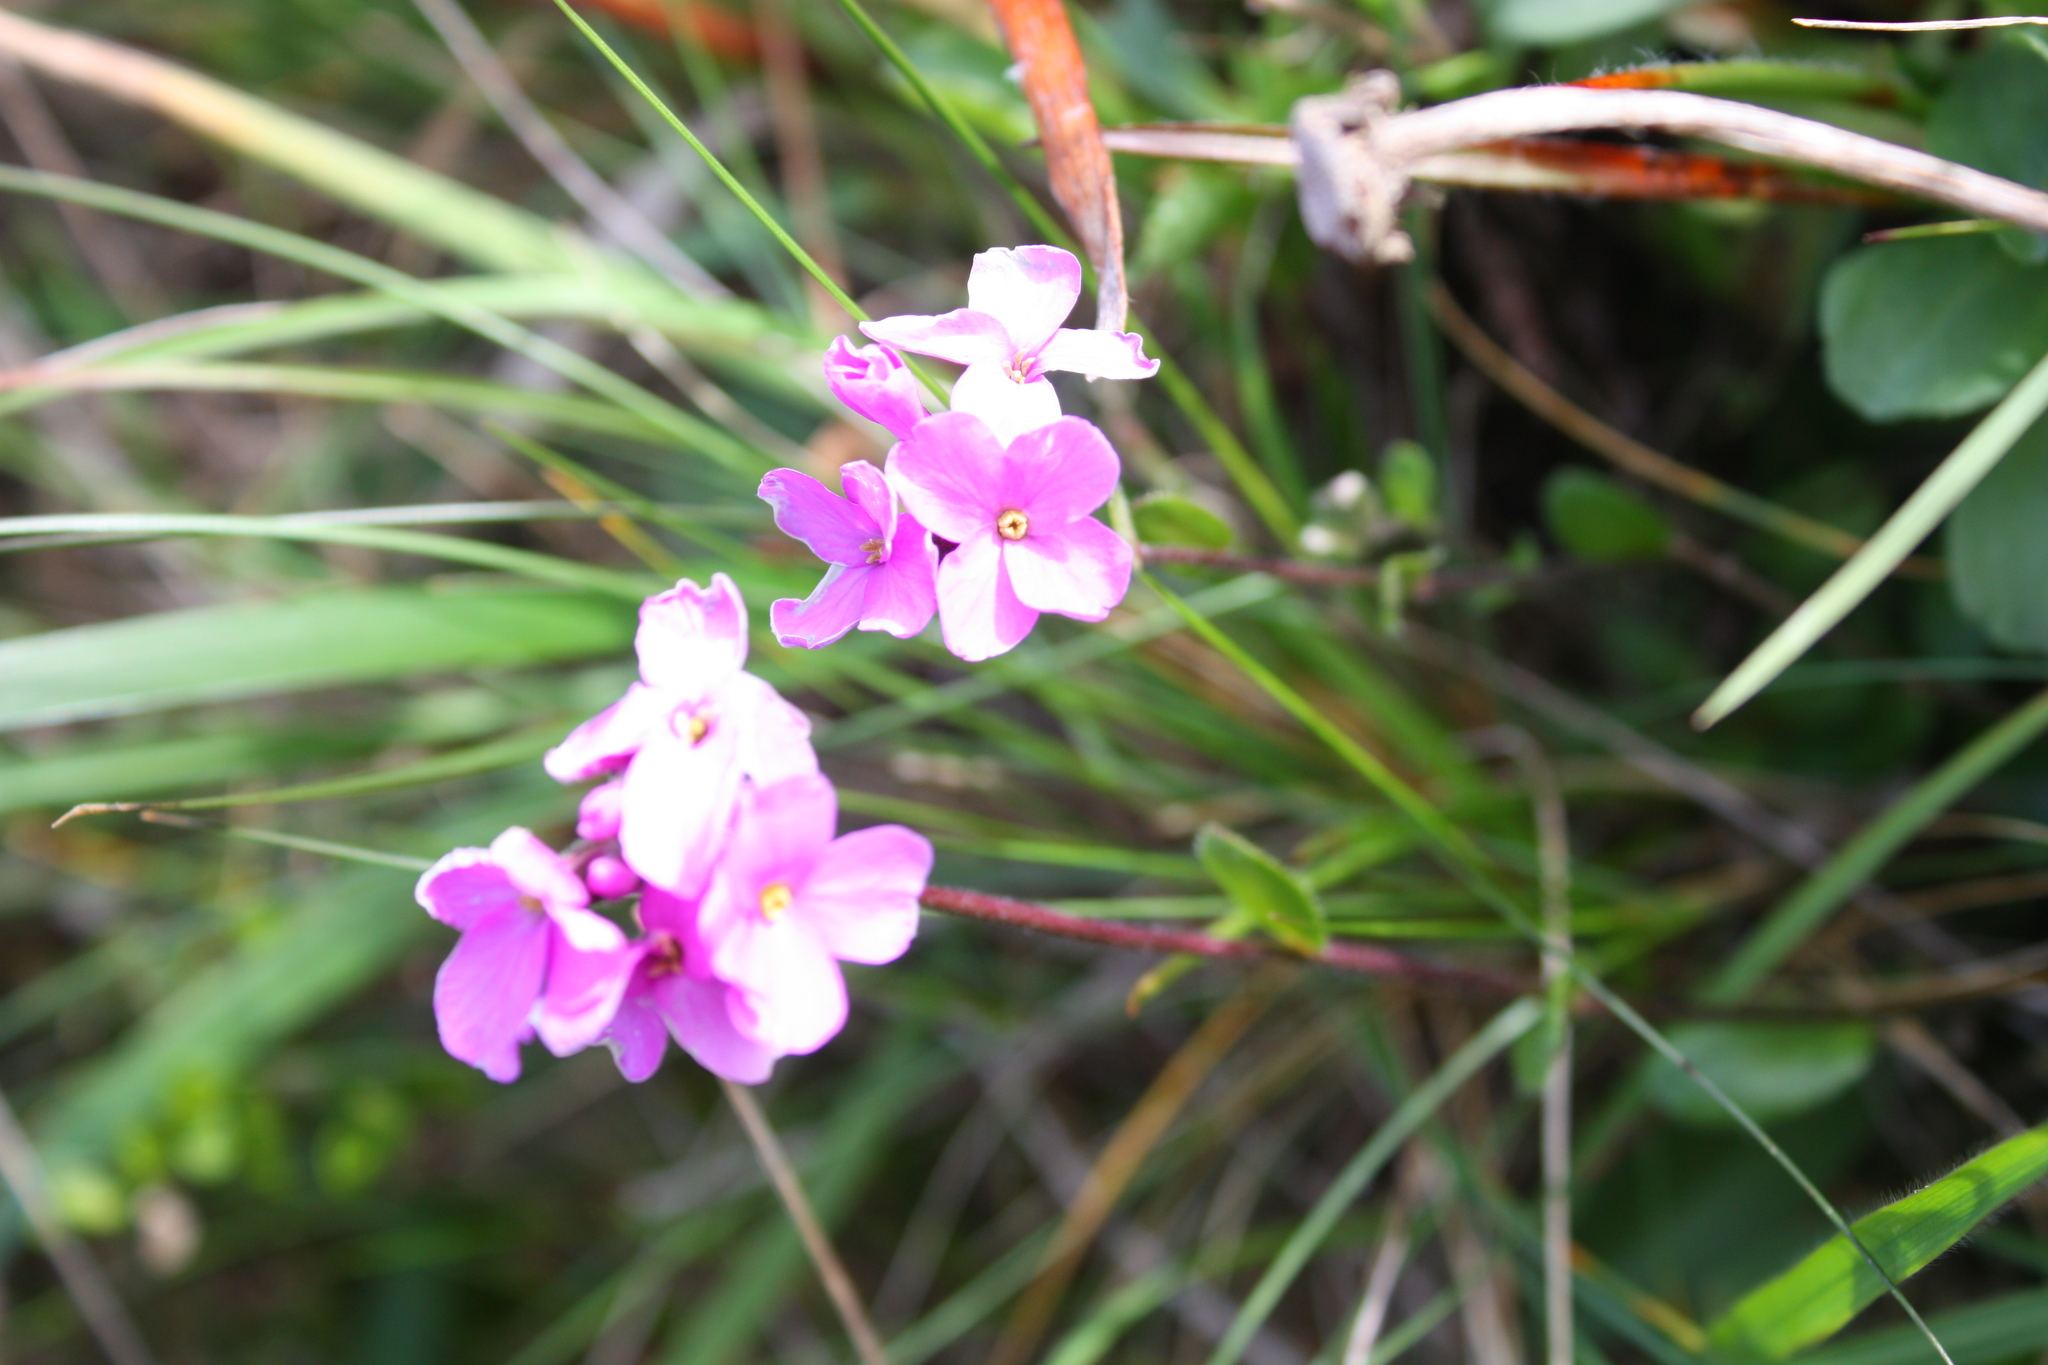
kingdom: Plantae
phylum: Tracheophyta
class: Magnoliopsida
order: Brassicales
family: Brassicaceae
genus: Arabis
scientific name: Arabis blepharophylla
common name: Rose rockcress
